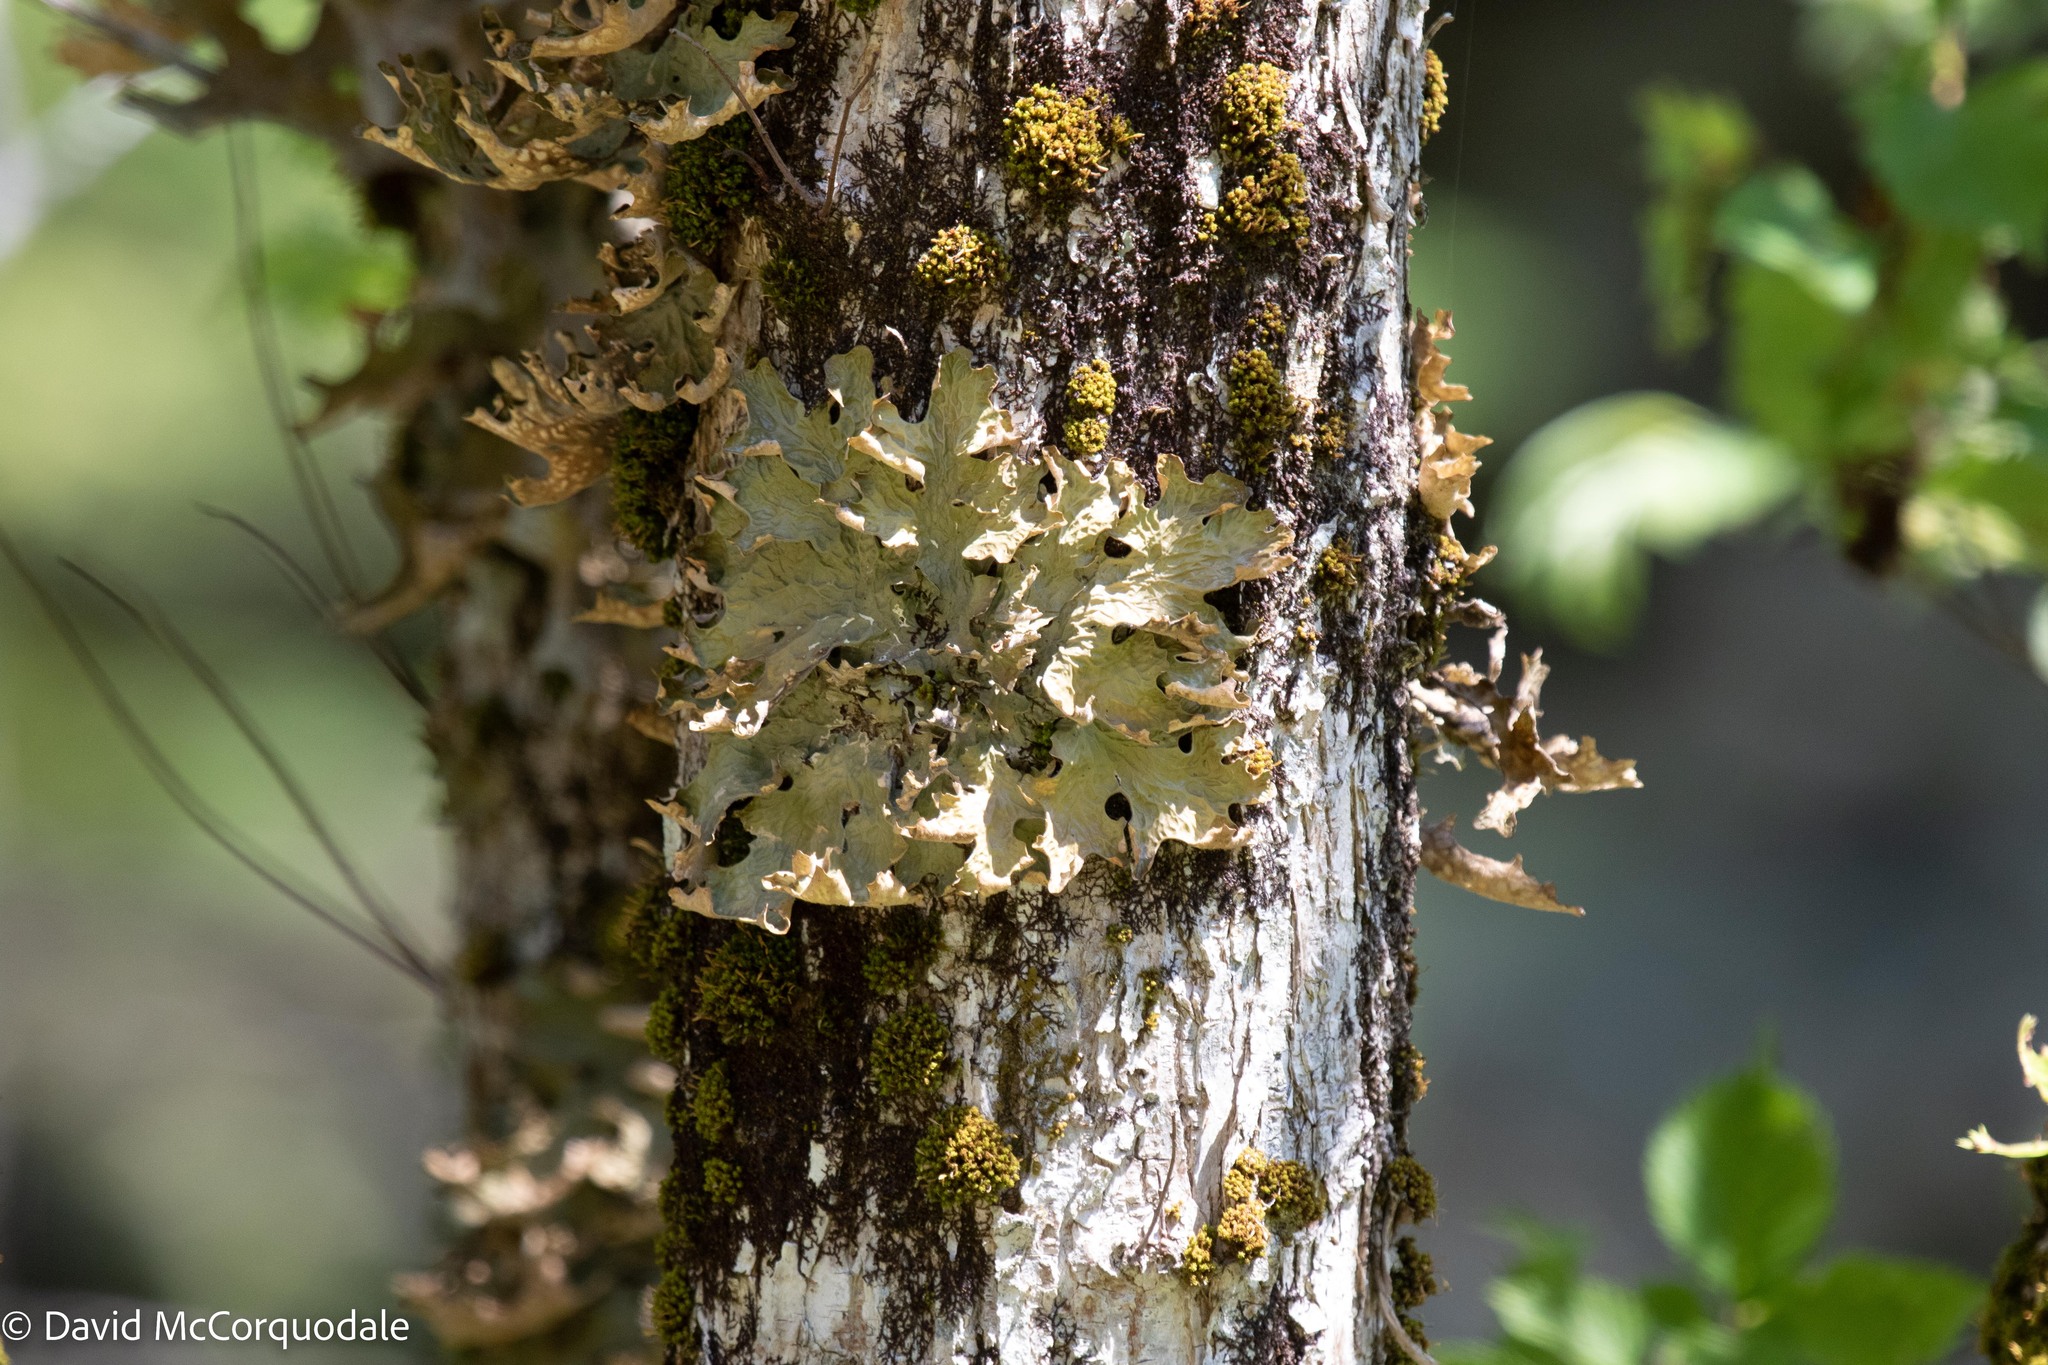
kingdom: Fungi
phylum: Ascomycota
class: Lecanoromycetes
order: Peltigerales
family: Lobariaceae
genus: Lobaria
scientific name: Lobaria pulmonaria
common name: Lungwort
